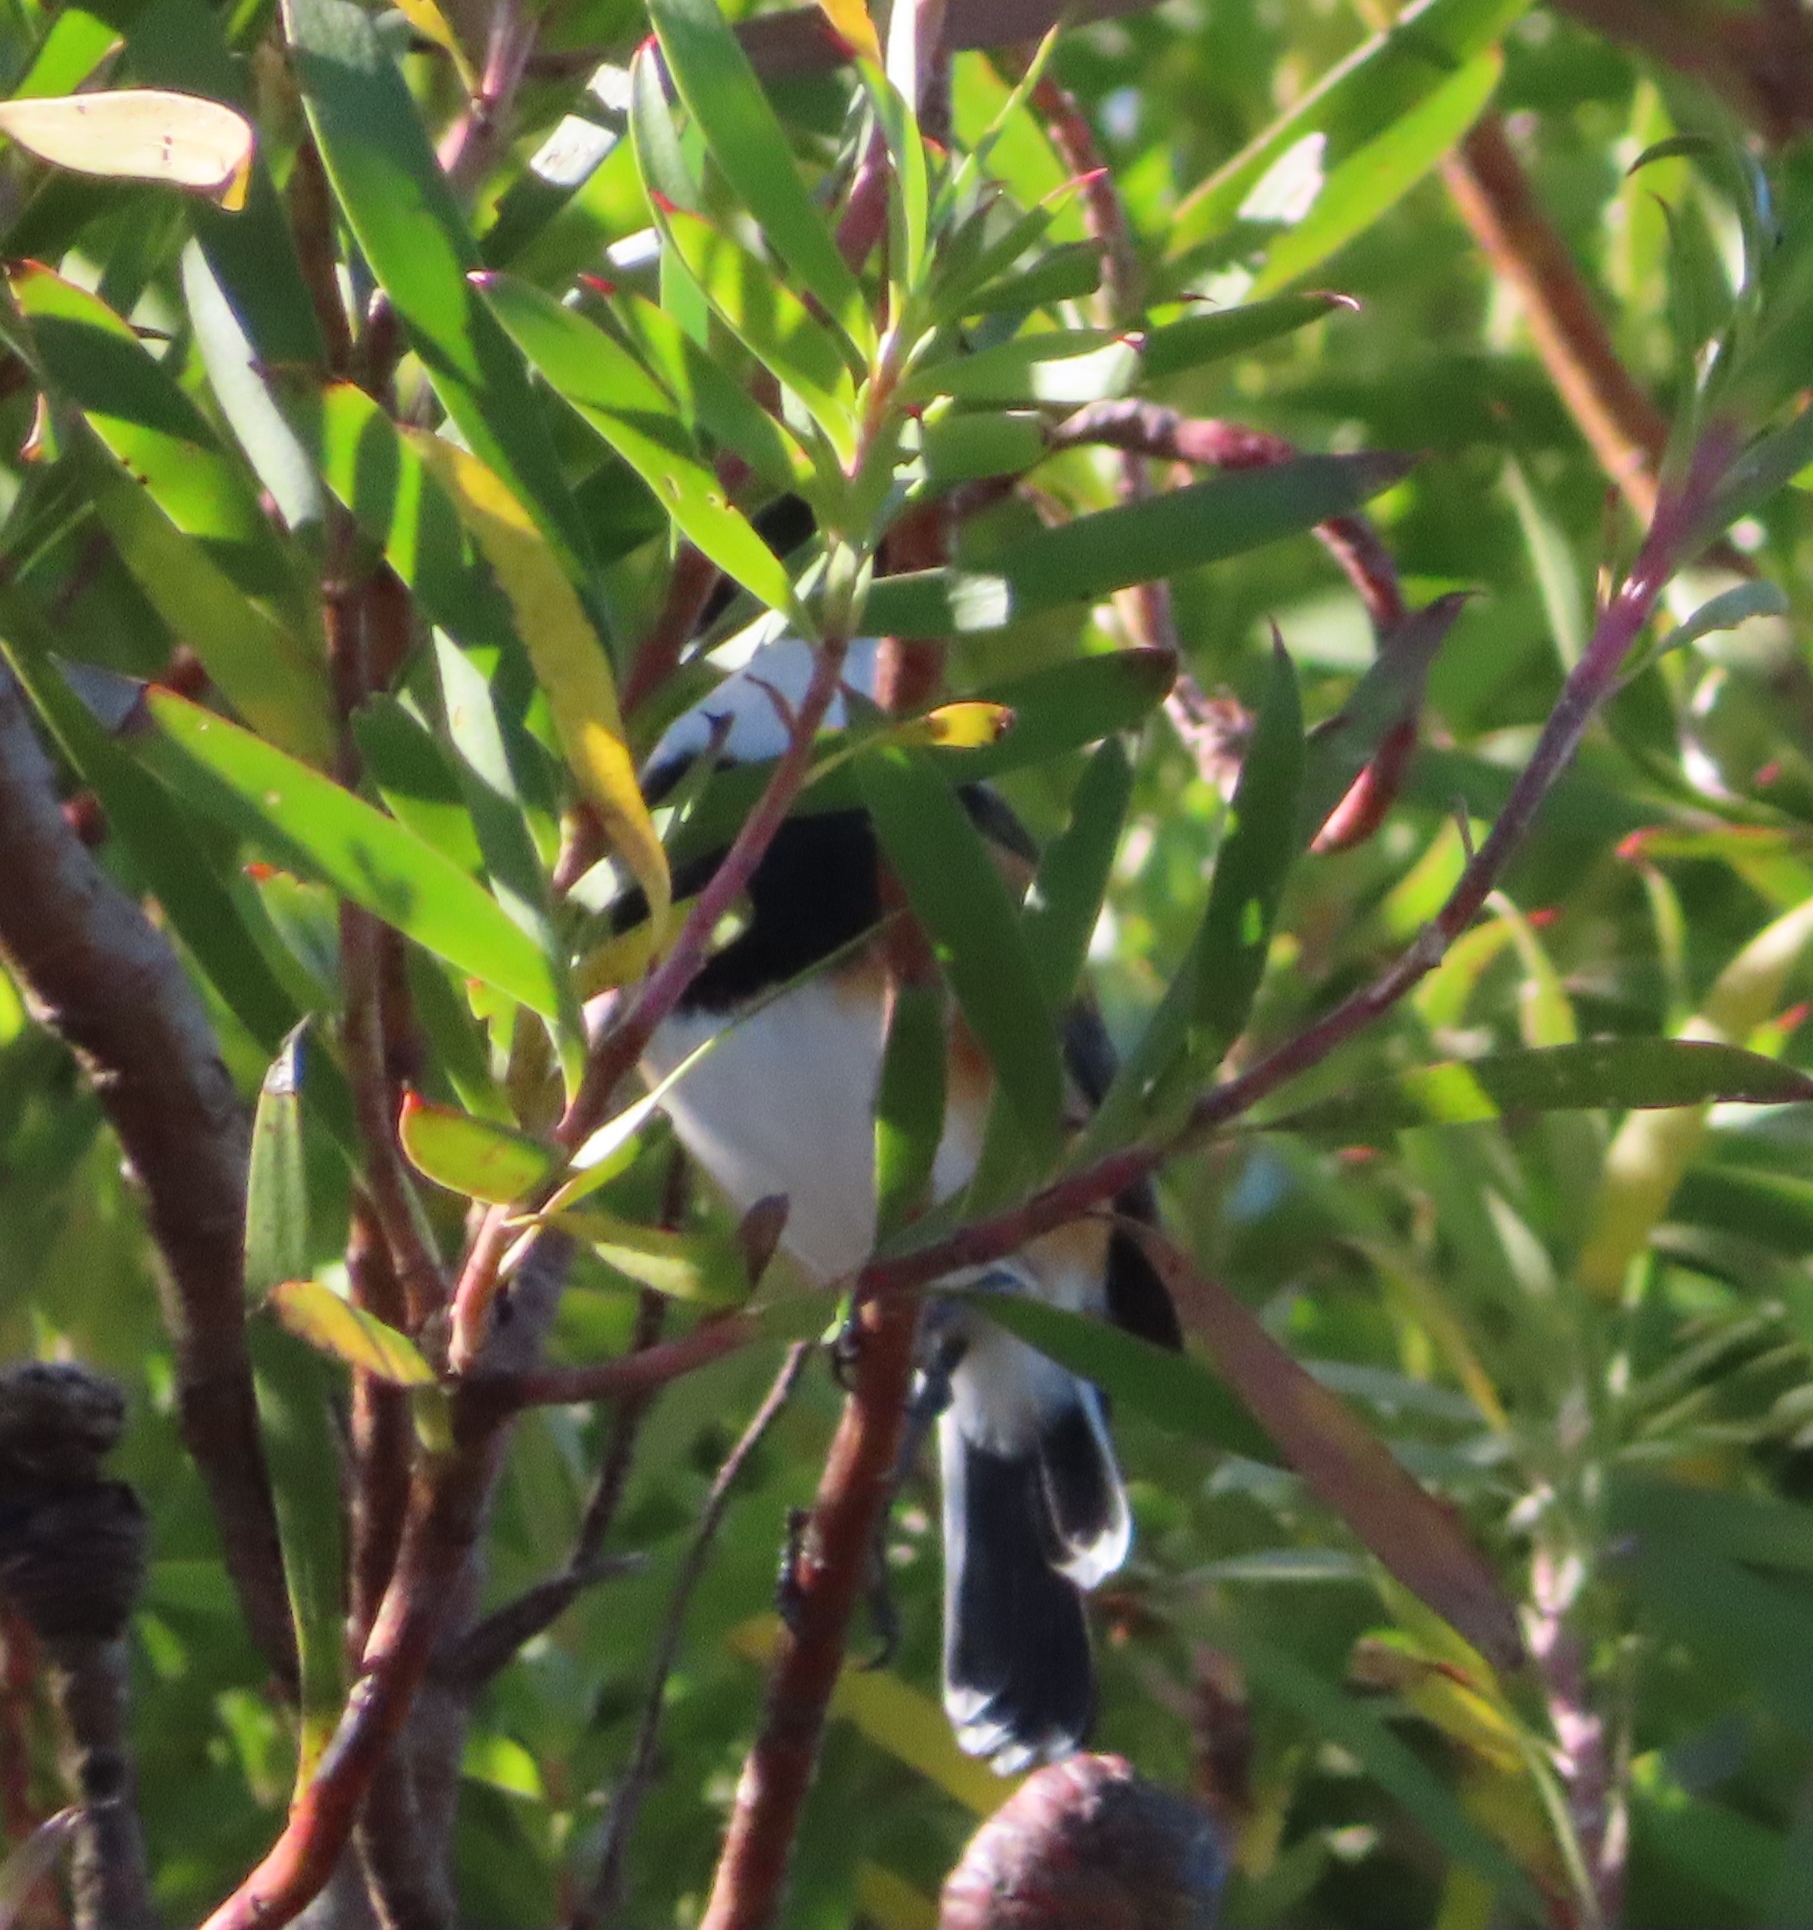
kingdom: Animalia
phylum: Chordata
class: Aves
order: Passeriformes
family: Platysteiridae
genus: Batis
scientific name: Batis capensis
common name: Cape batis
